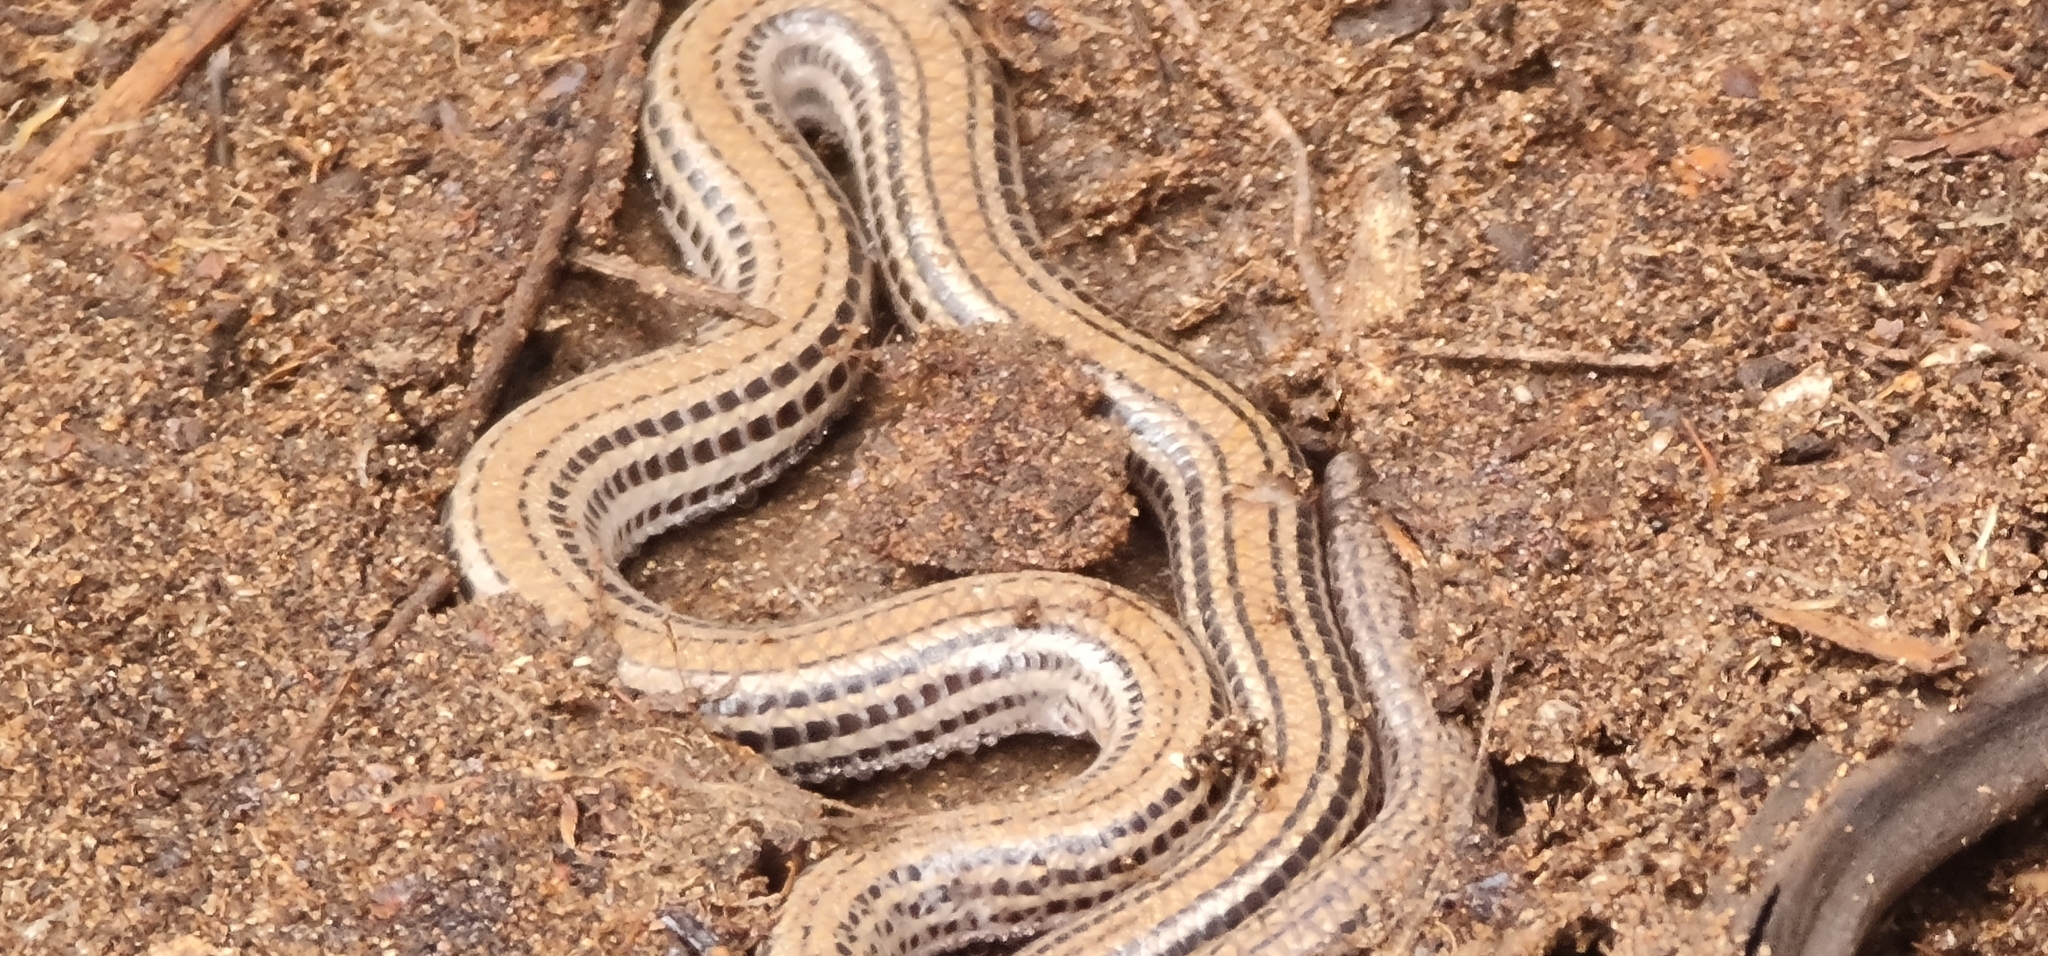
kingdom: Animalia
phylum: Chordata
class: Squamata
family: Pygopodidae
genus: Aprasia
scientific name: Aprasia striolata
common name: Striated worm-lizard
